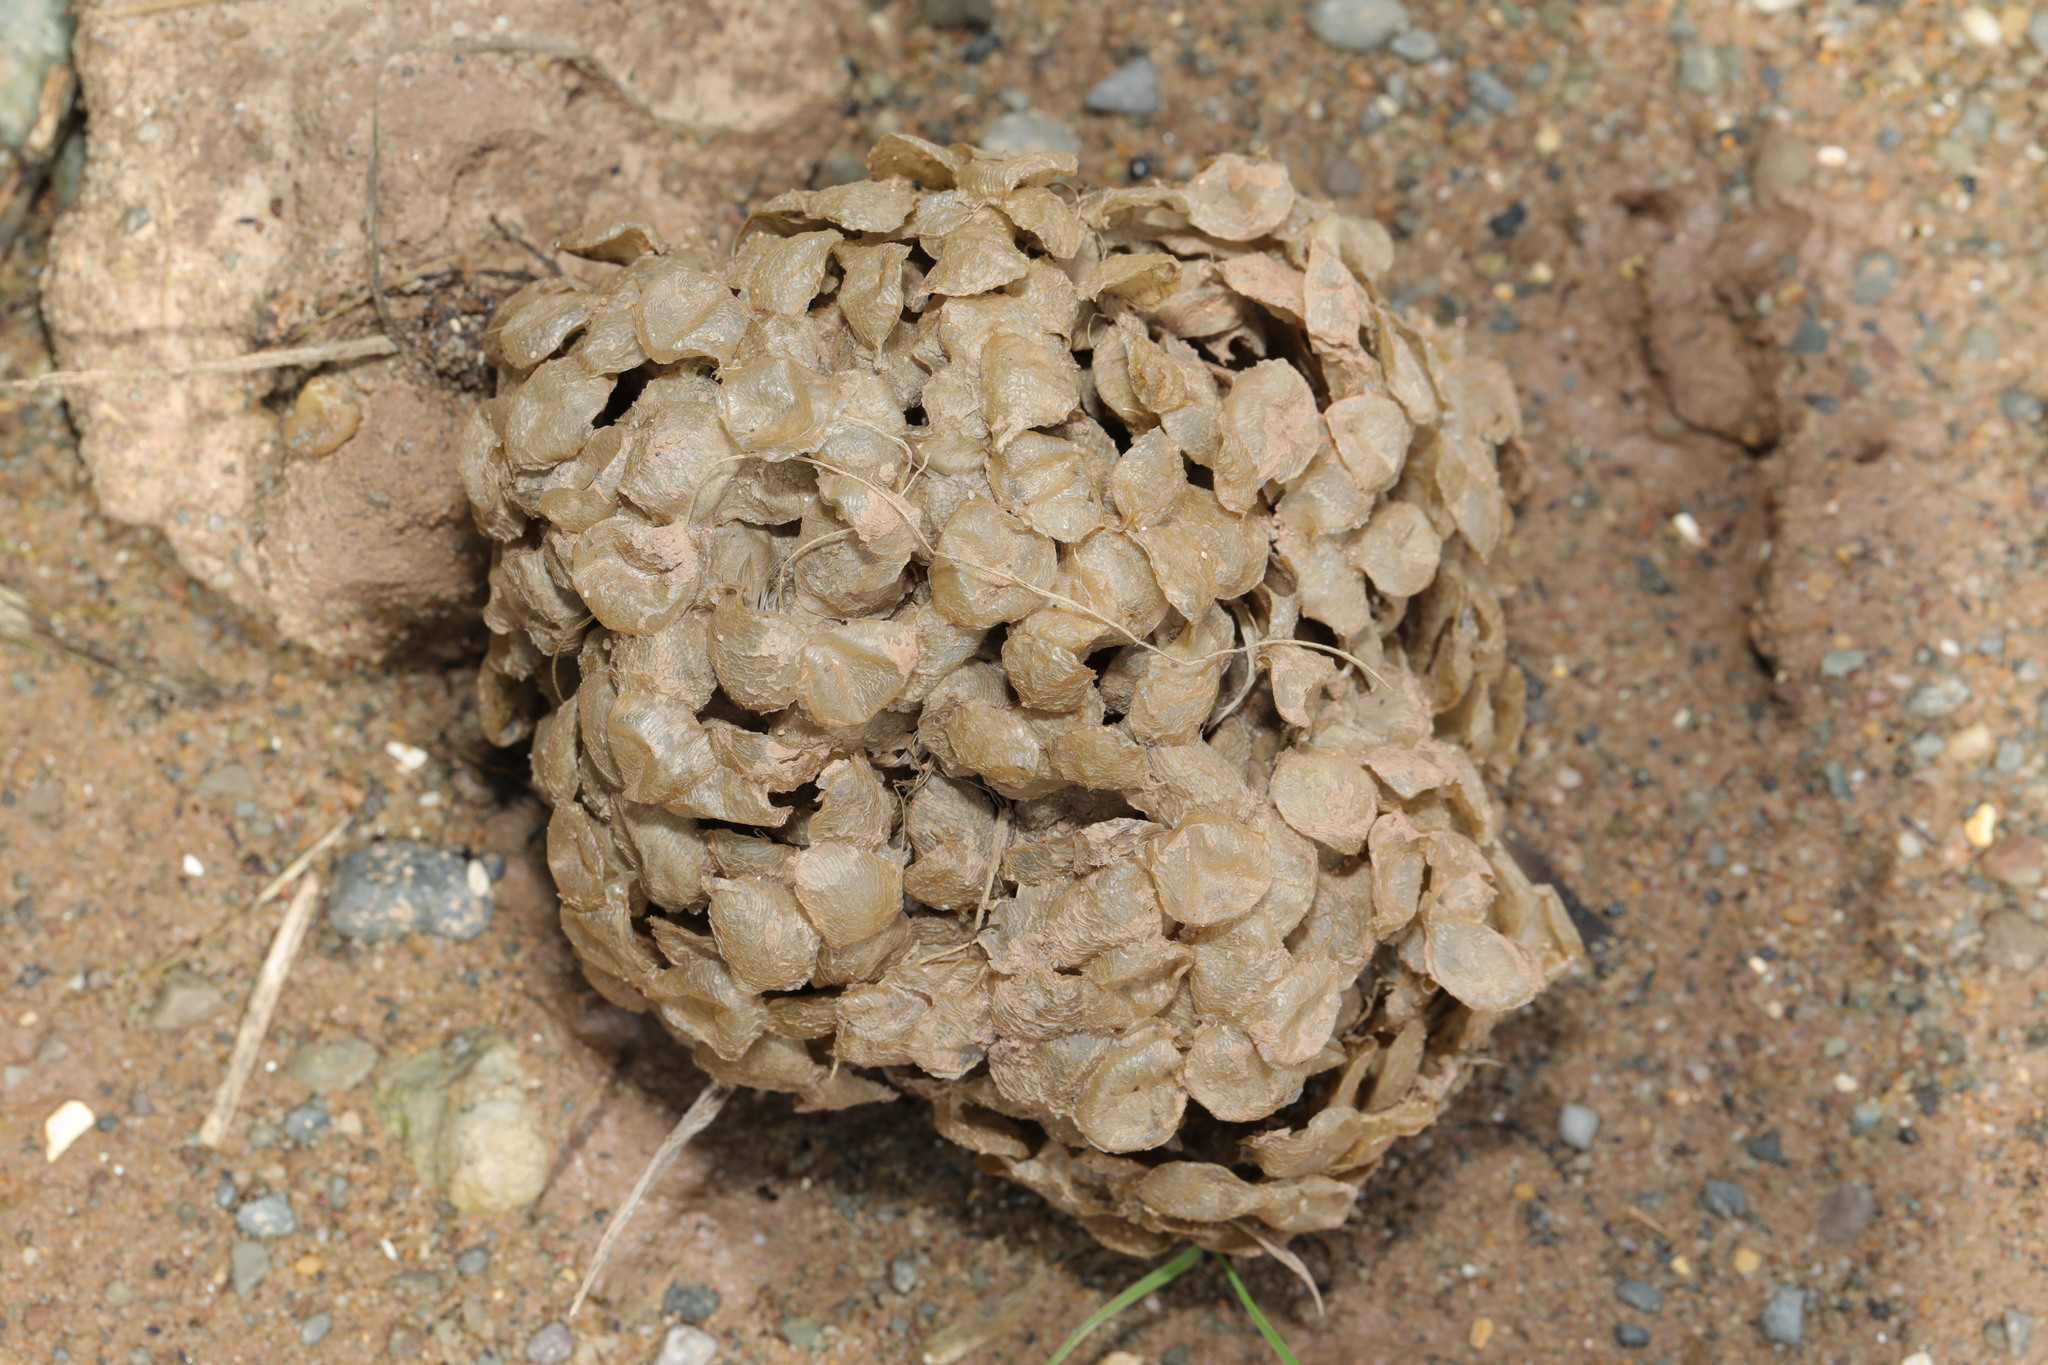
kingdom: Animalia
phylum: Mollusca
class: Gastropoda
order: Neogastropoda
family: Buccinidae
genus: Buccinum
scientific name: Buccinum undatum
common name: Common whelk
